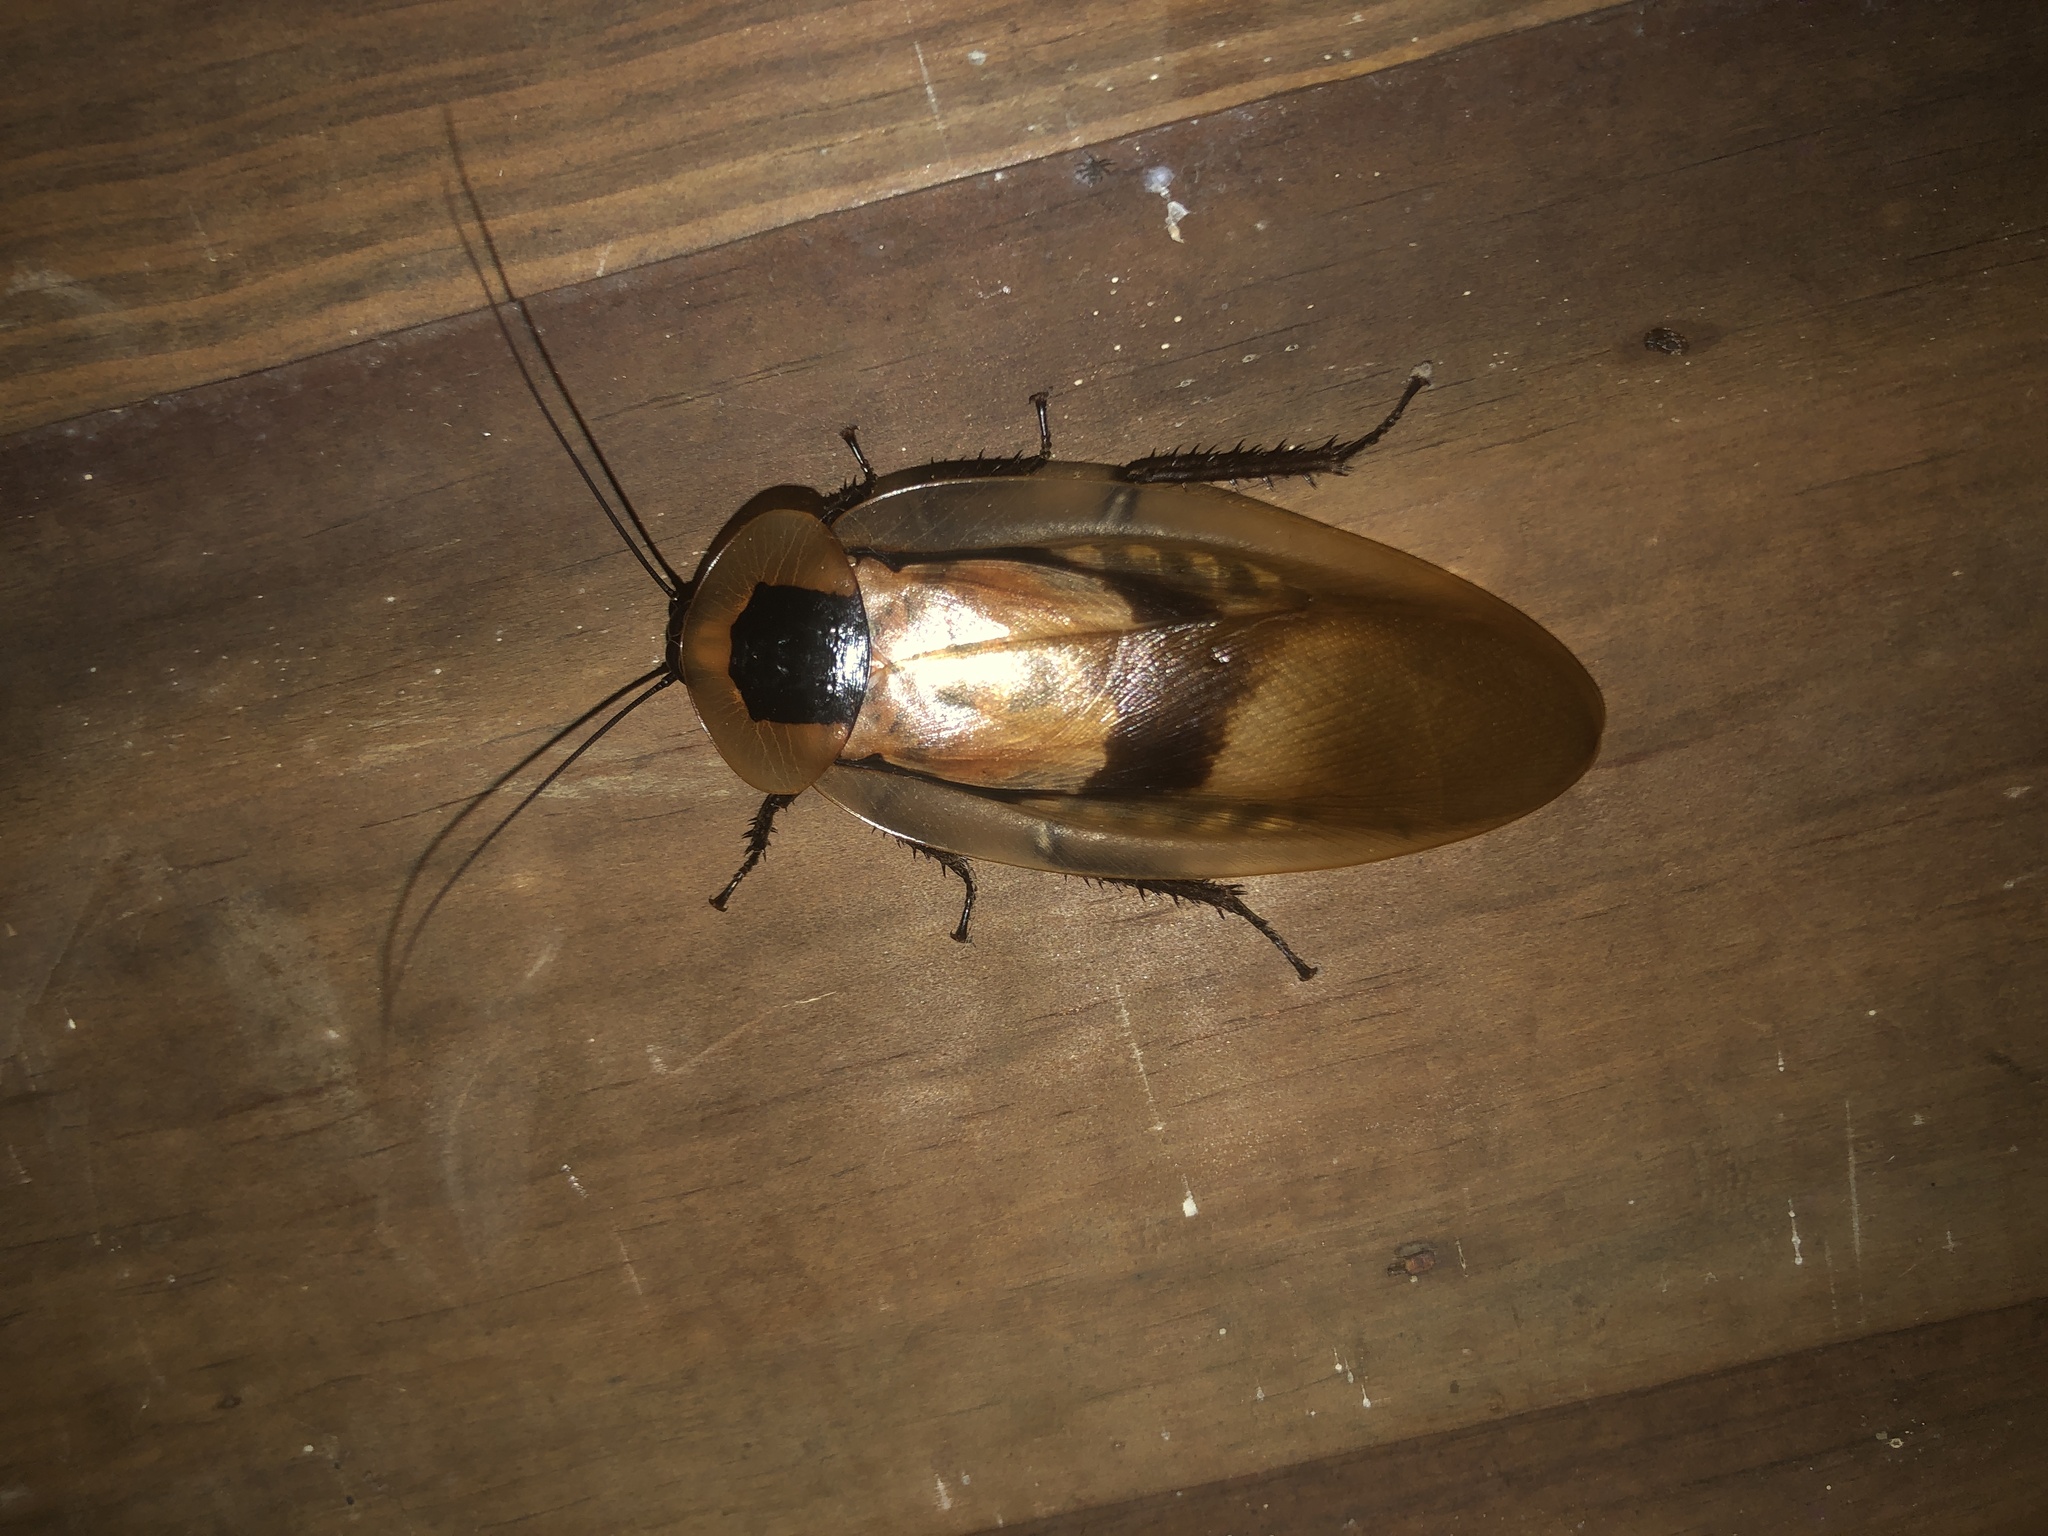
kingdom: Animalia
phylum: Arthropoda
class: Insecta
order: Blattodea
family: Blaberidae
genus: Blaberus
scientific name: Blaberus giganteus
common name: Giant cave cockroach
